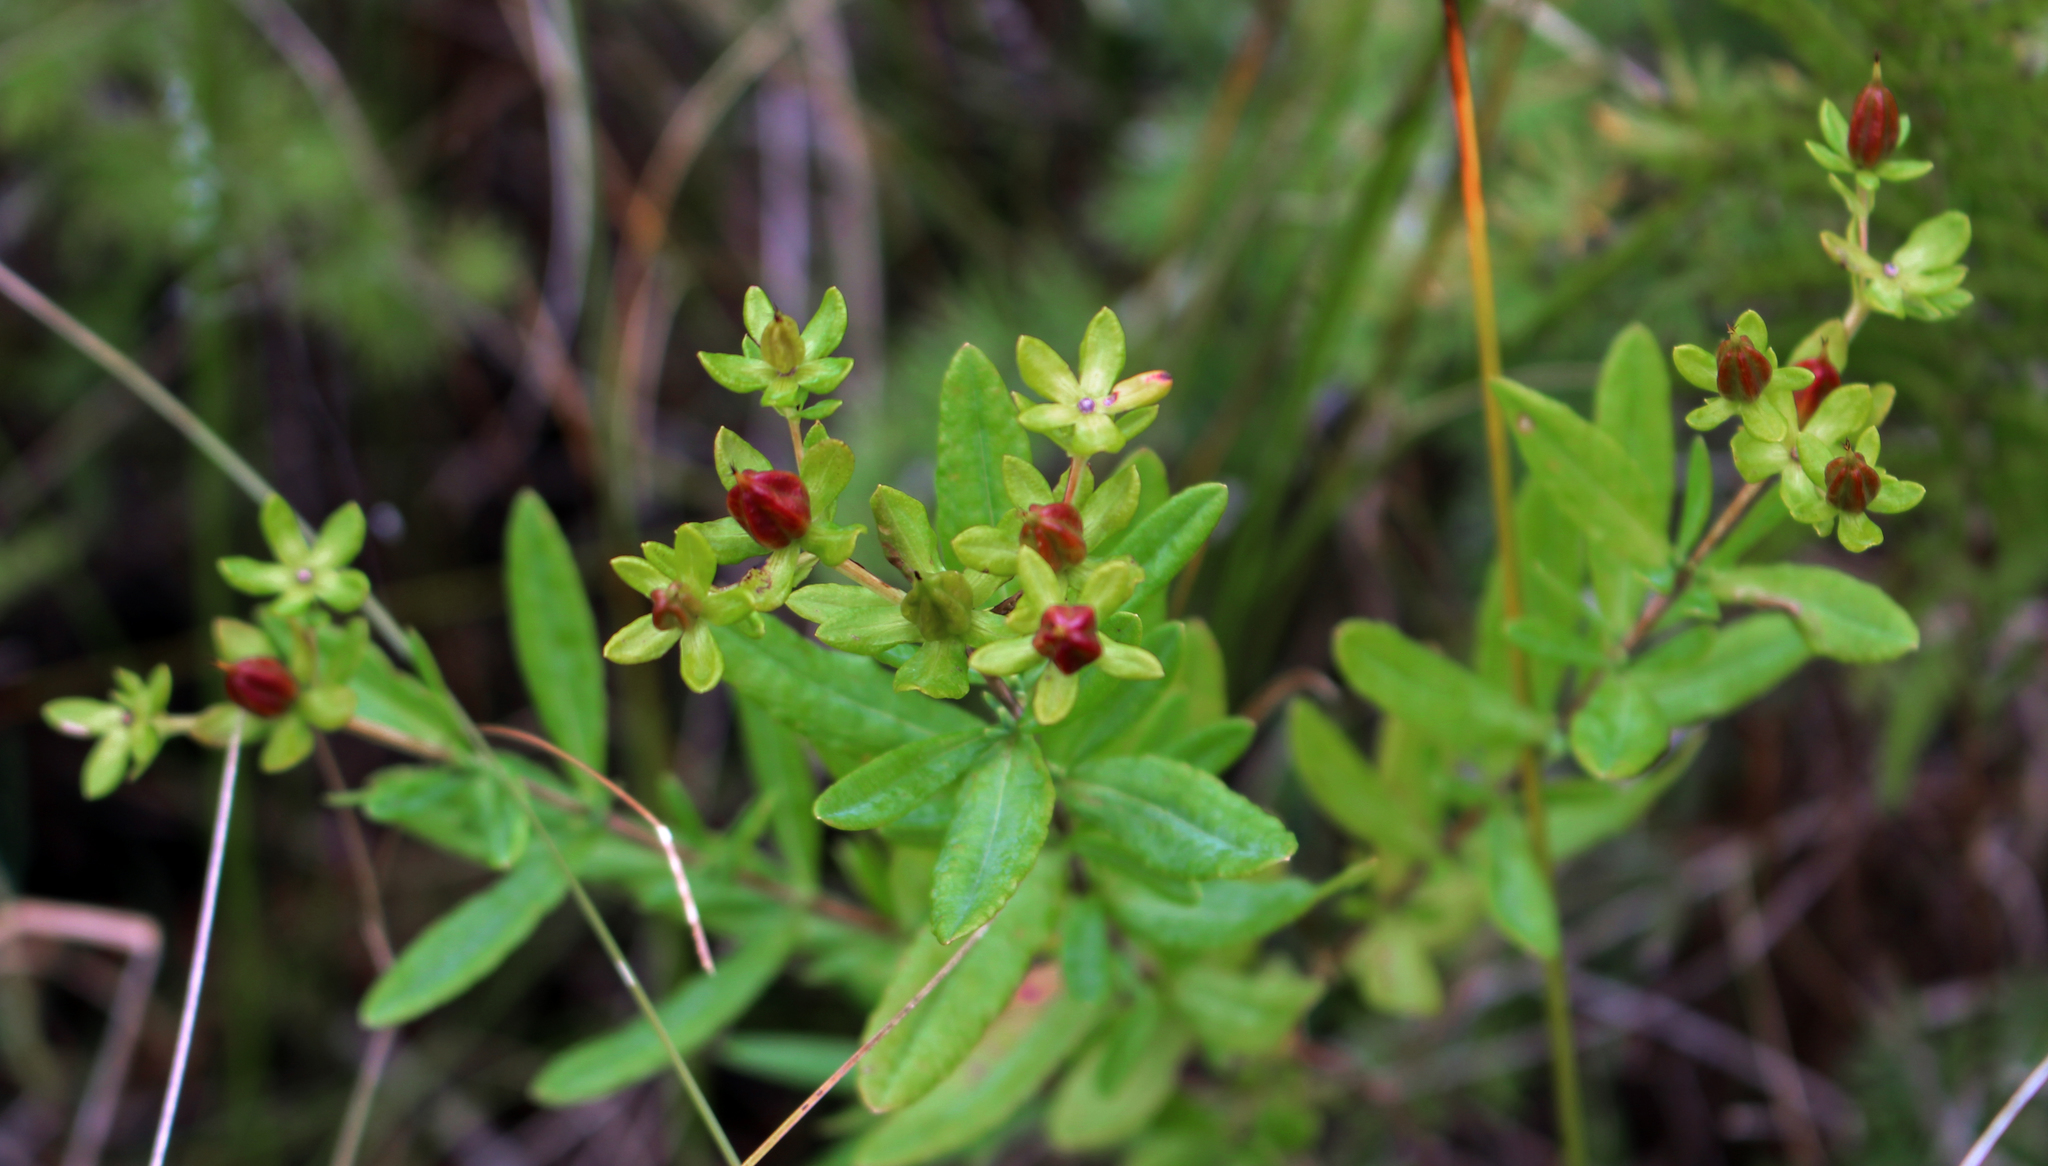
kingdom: Plantae
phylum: Tracheophyta
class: Magnoliopsida
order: Malpighiales
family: Hypericaceae
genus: Hypericum
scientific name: Hypericum kalmianum
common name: Kalm's st. john's-wort
